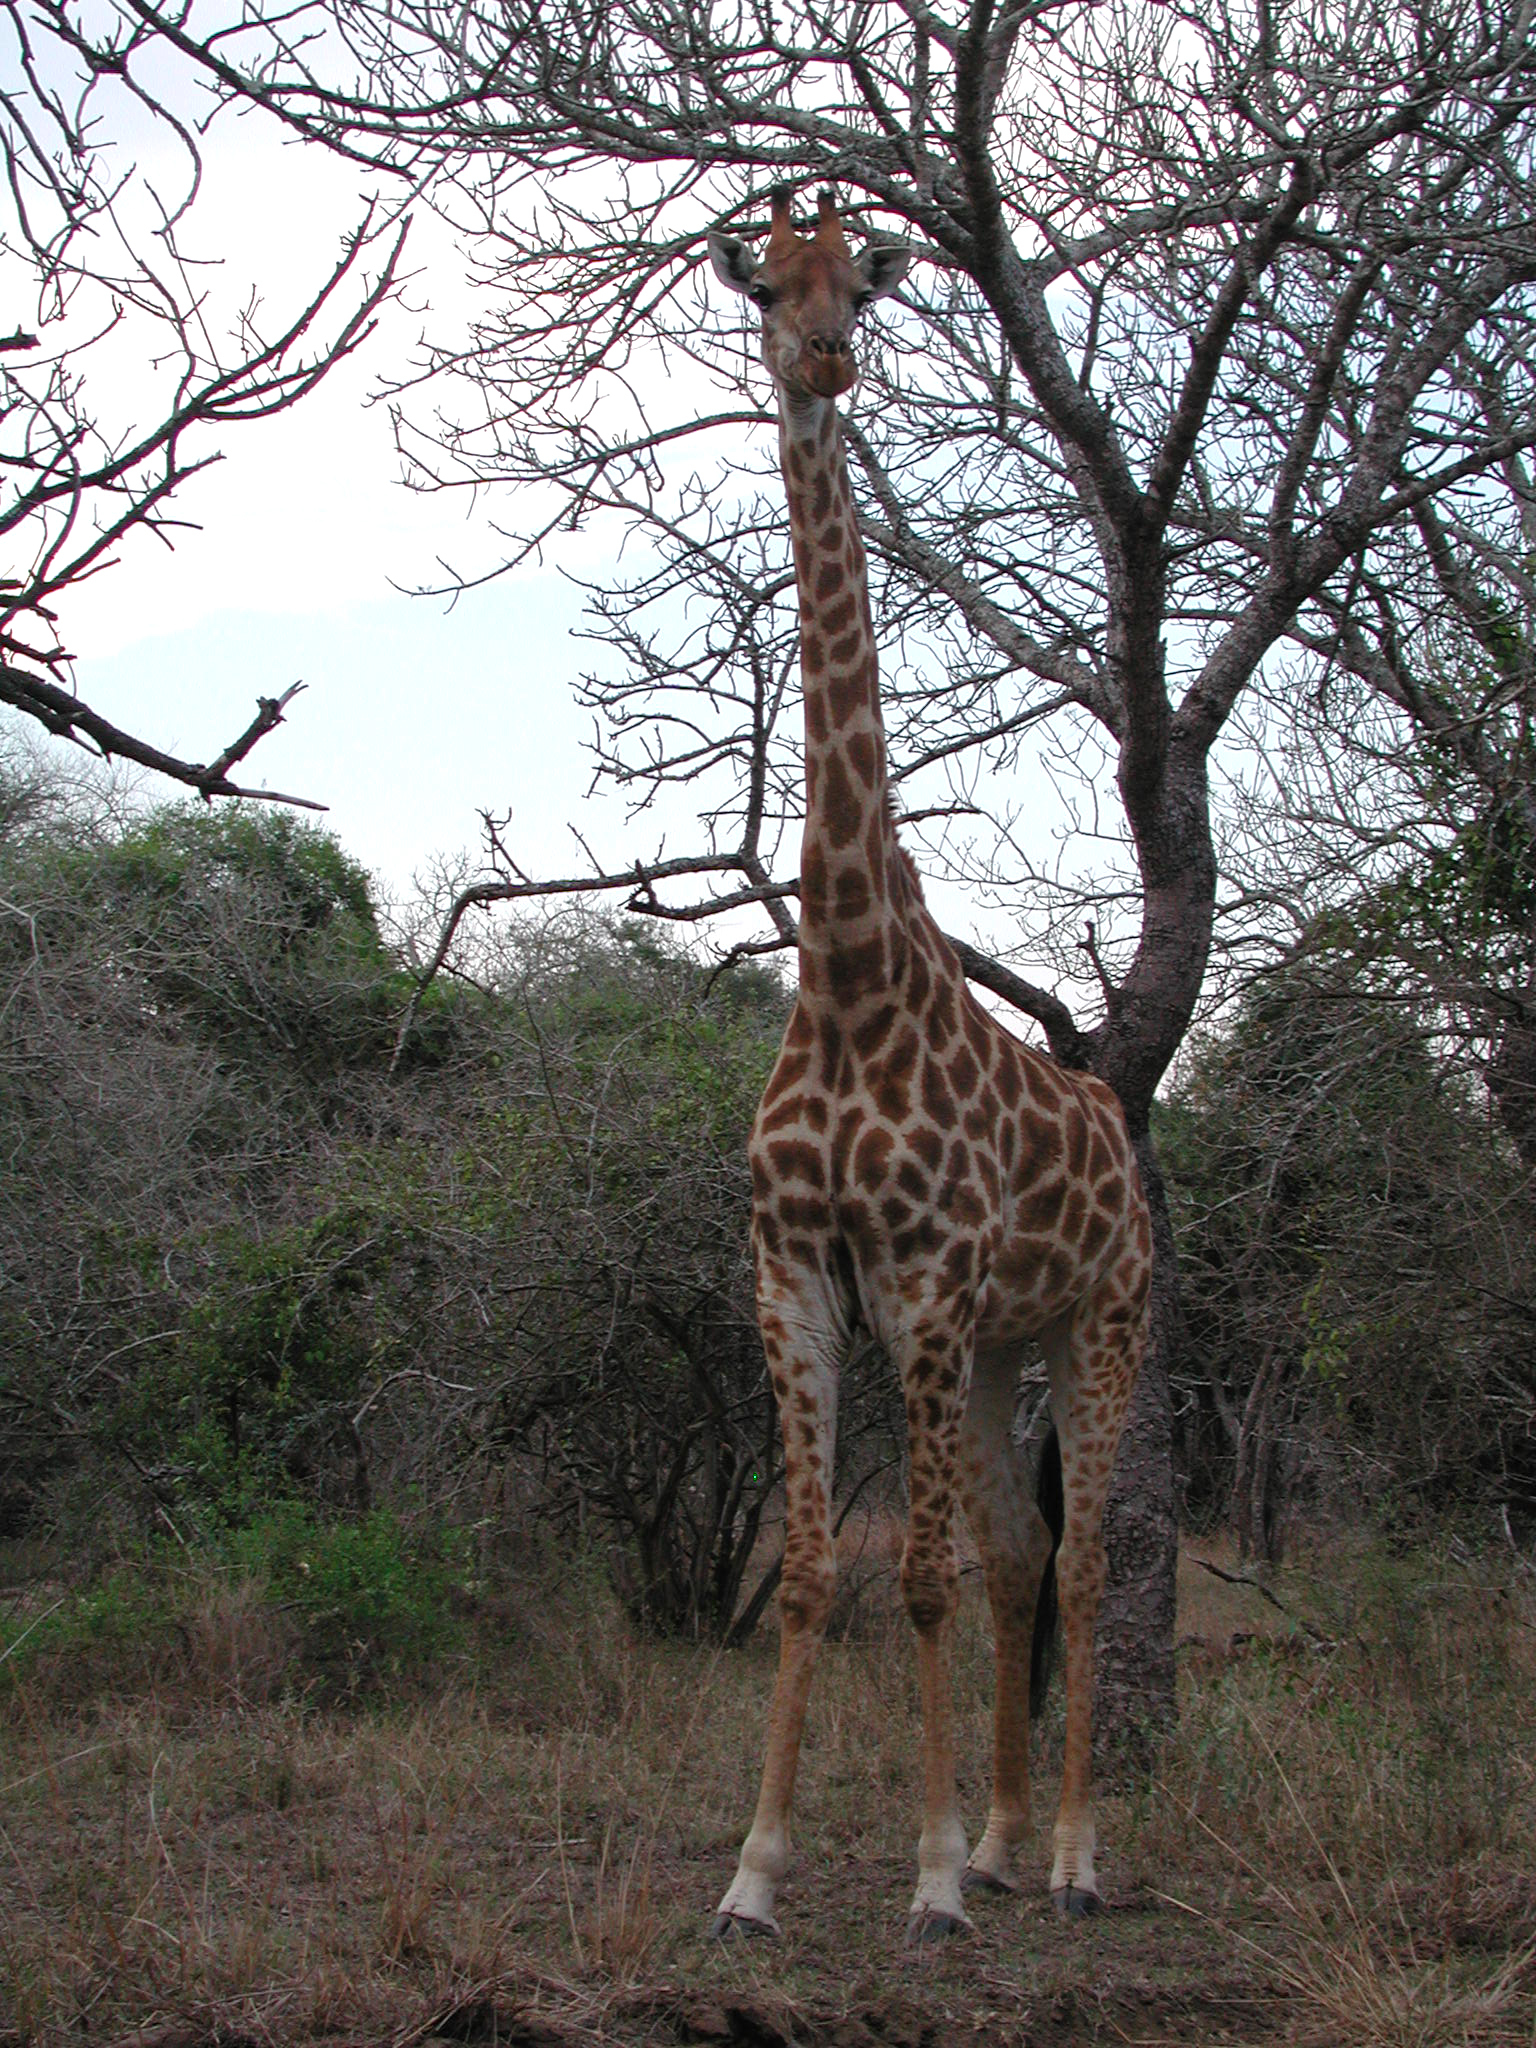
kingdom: Animalia
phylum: Chordata
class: Mammalia
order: Artiodactyla
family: Giraffidae
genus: Giraffa
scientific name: Giraffa giraffa
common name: Southern giraffe
